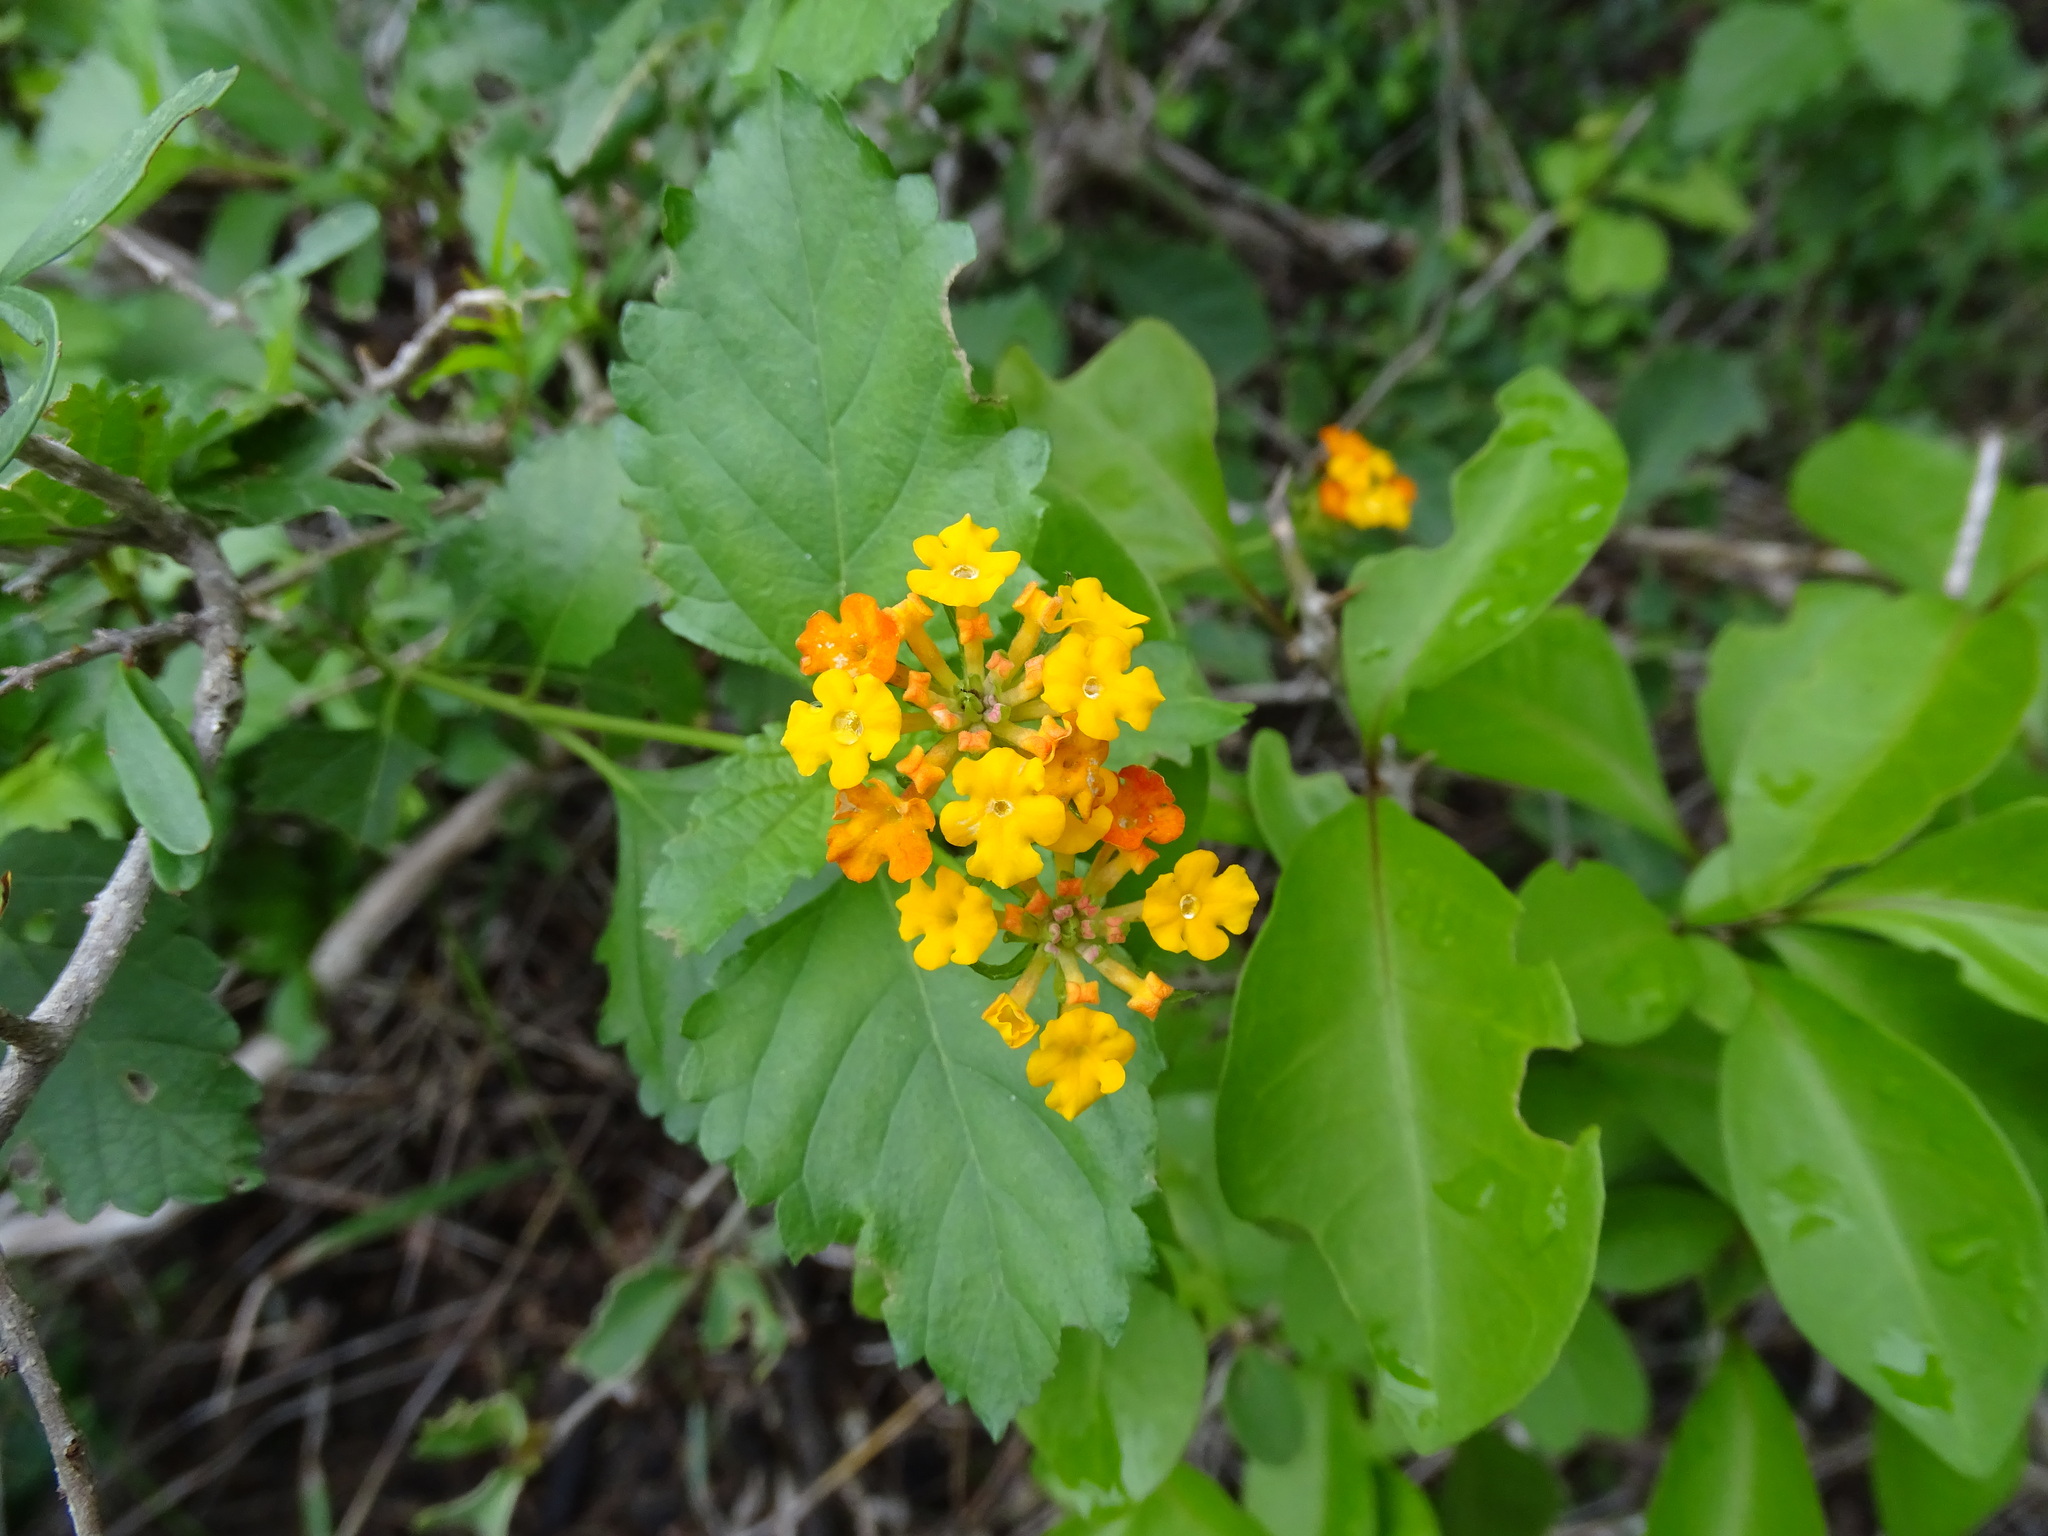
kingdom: Plantae
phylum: Tracheophyta
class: Magnoliopsida
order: Lamiales
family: Verbenaceae
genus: Lantana
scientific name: Lantana urticoides
